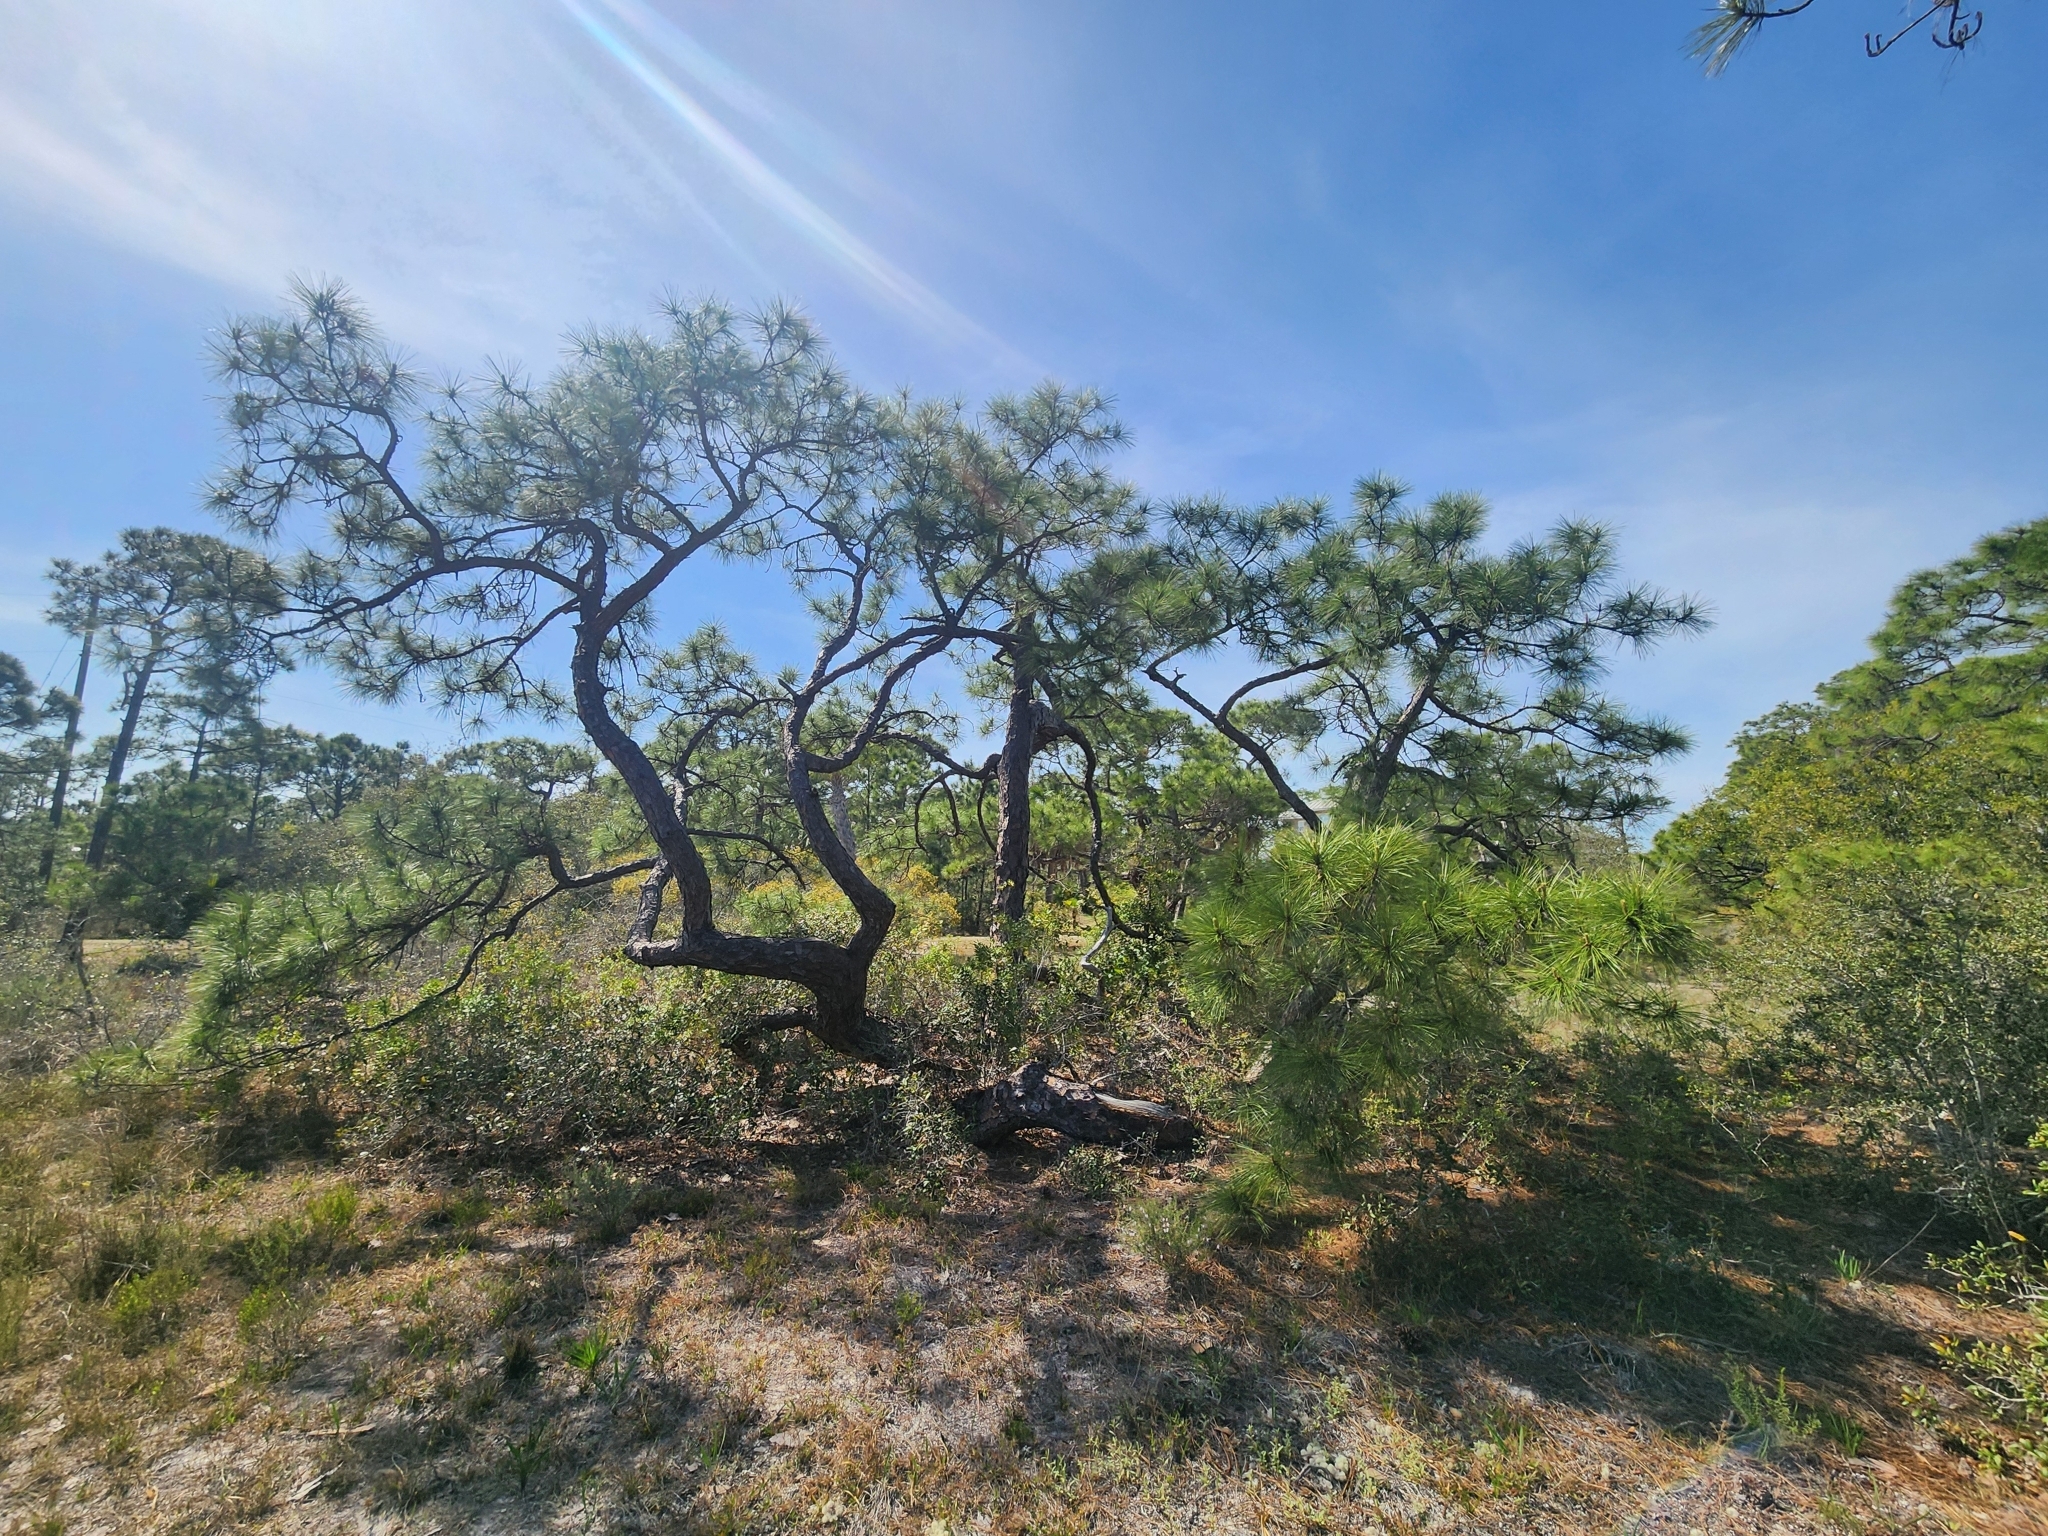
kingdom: Plantae
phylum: Tracheophyta
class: Pinopsida
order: Pinales
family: Pinaceae
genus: Pinus
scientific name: Pinus elliottii
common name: Slash pine
